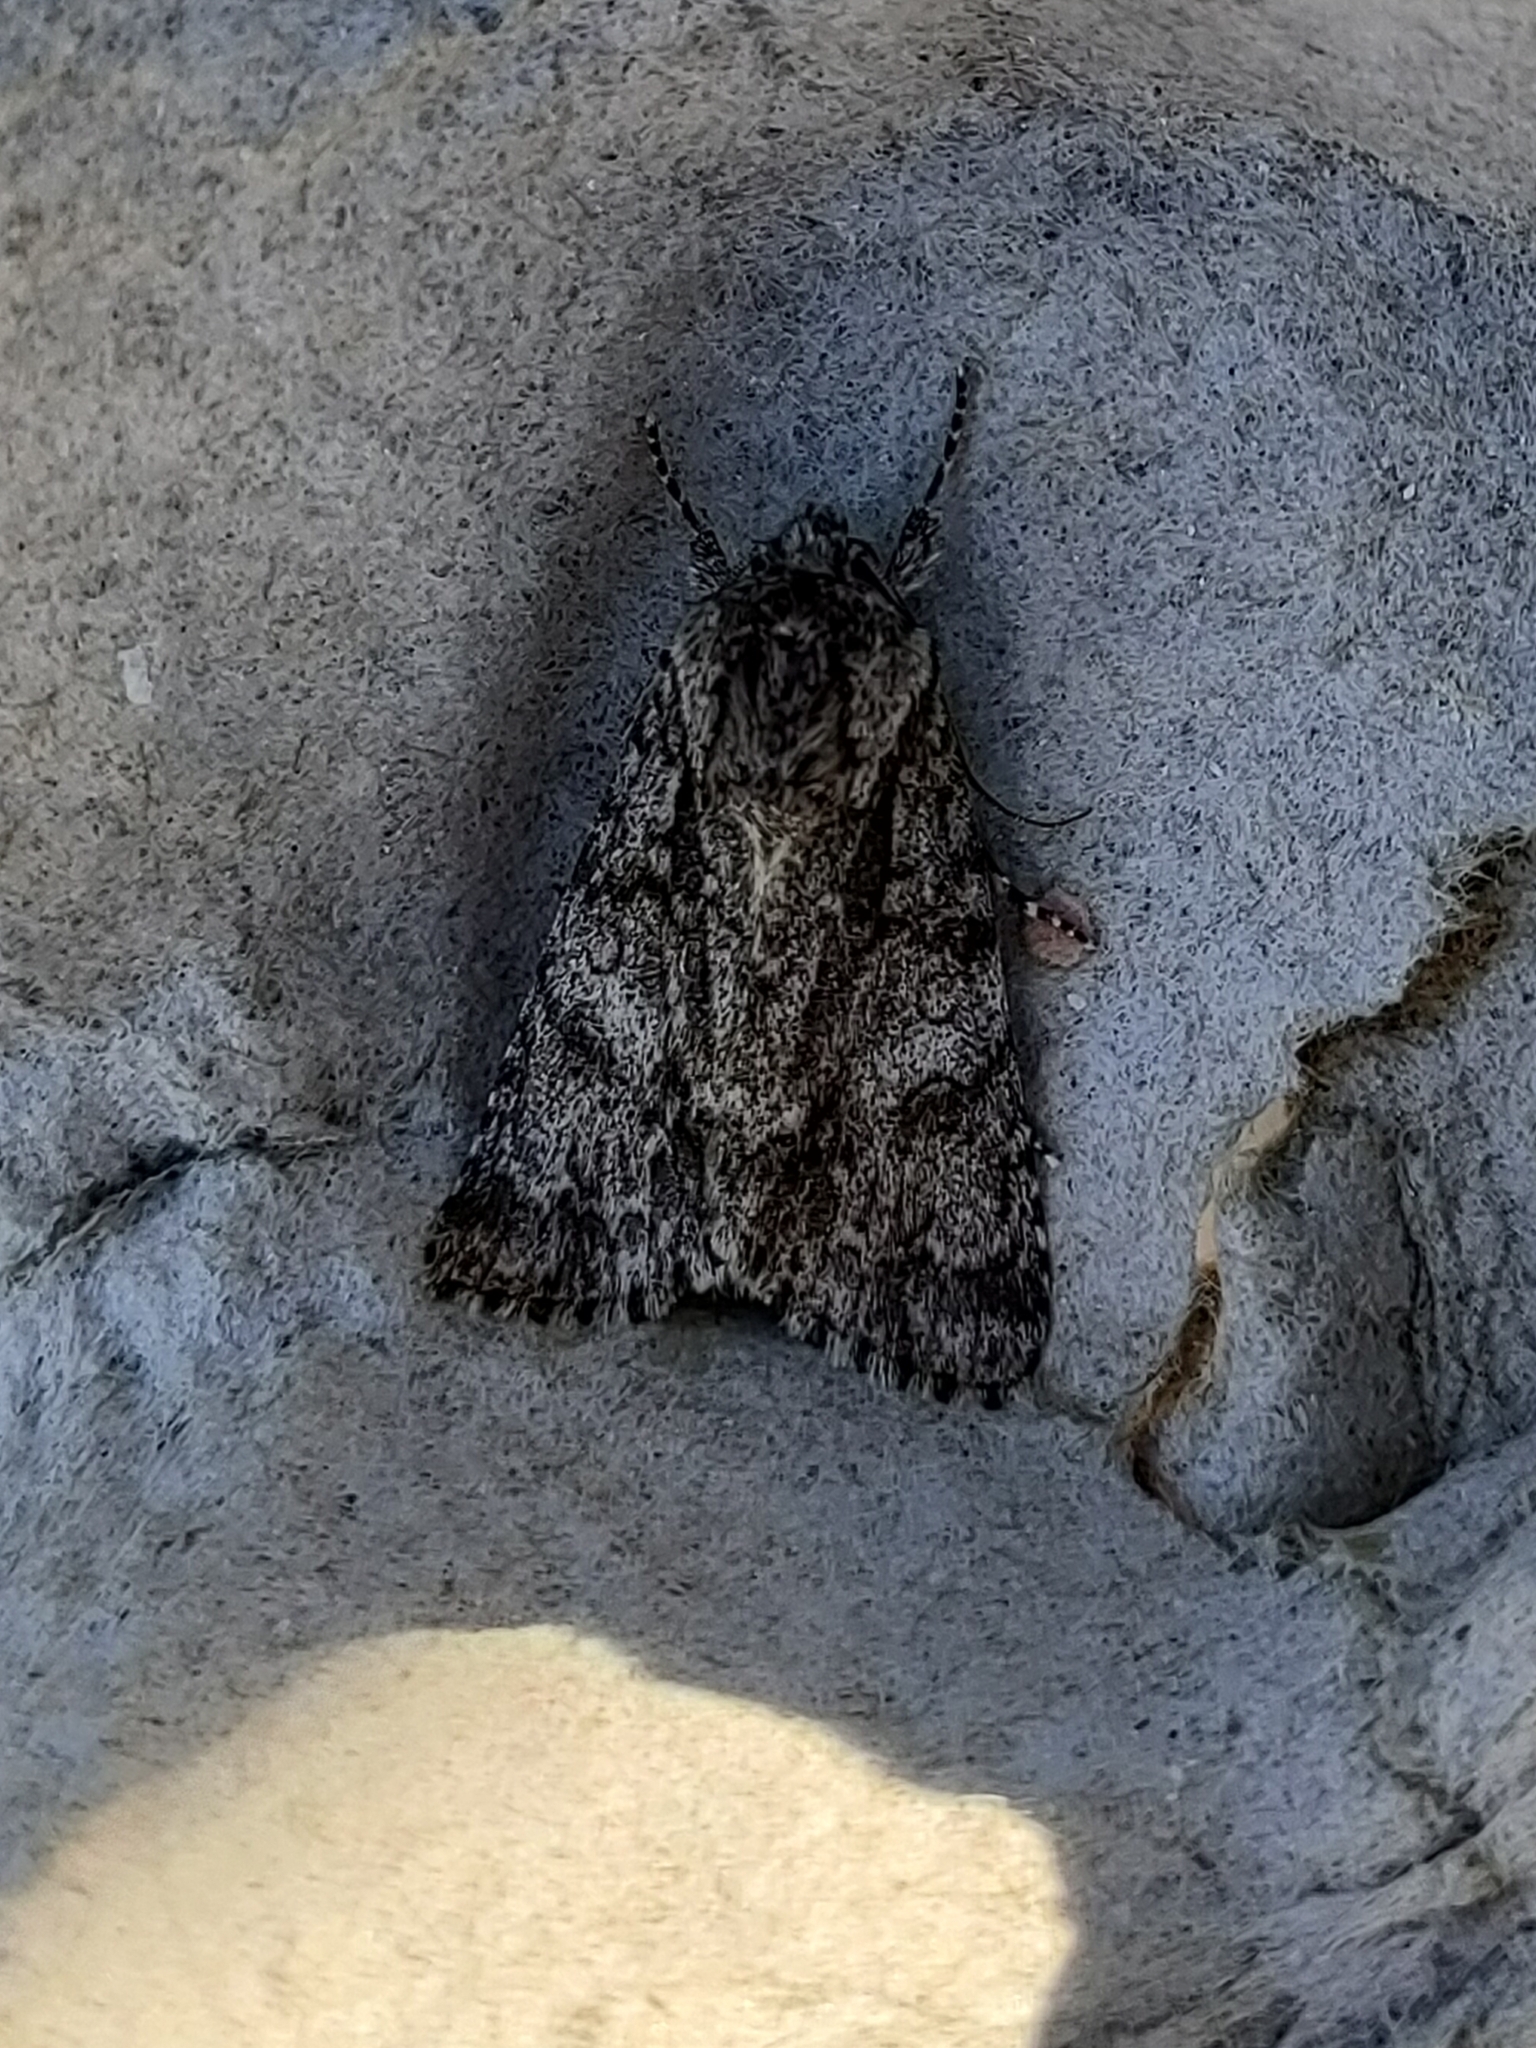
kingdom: Animalia
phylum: Arthropoda
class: Insecta
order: Lepidoptera
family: Noctuidae
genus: Acronicta
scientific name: Acronicta auricoma
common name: Scarce dagger
